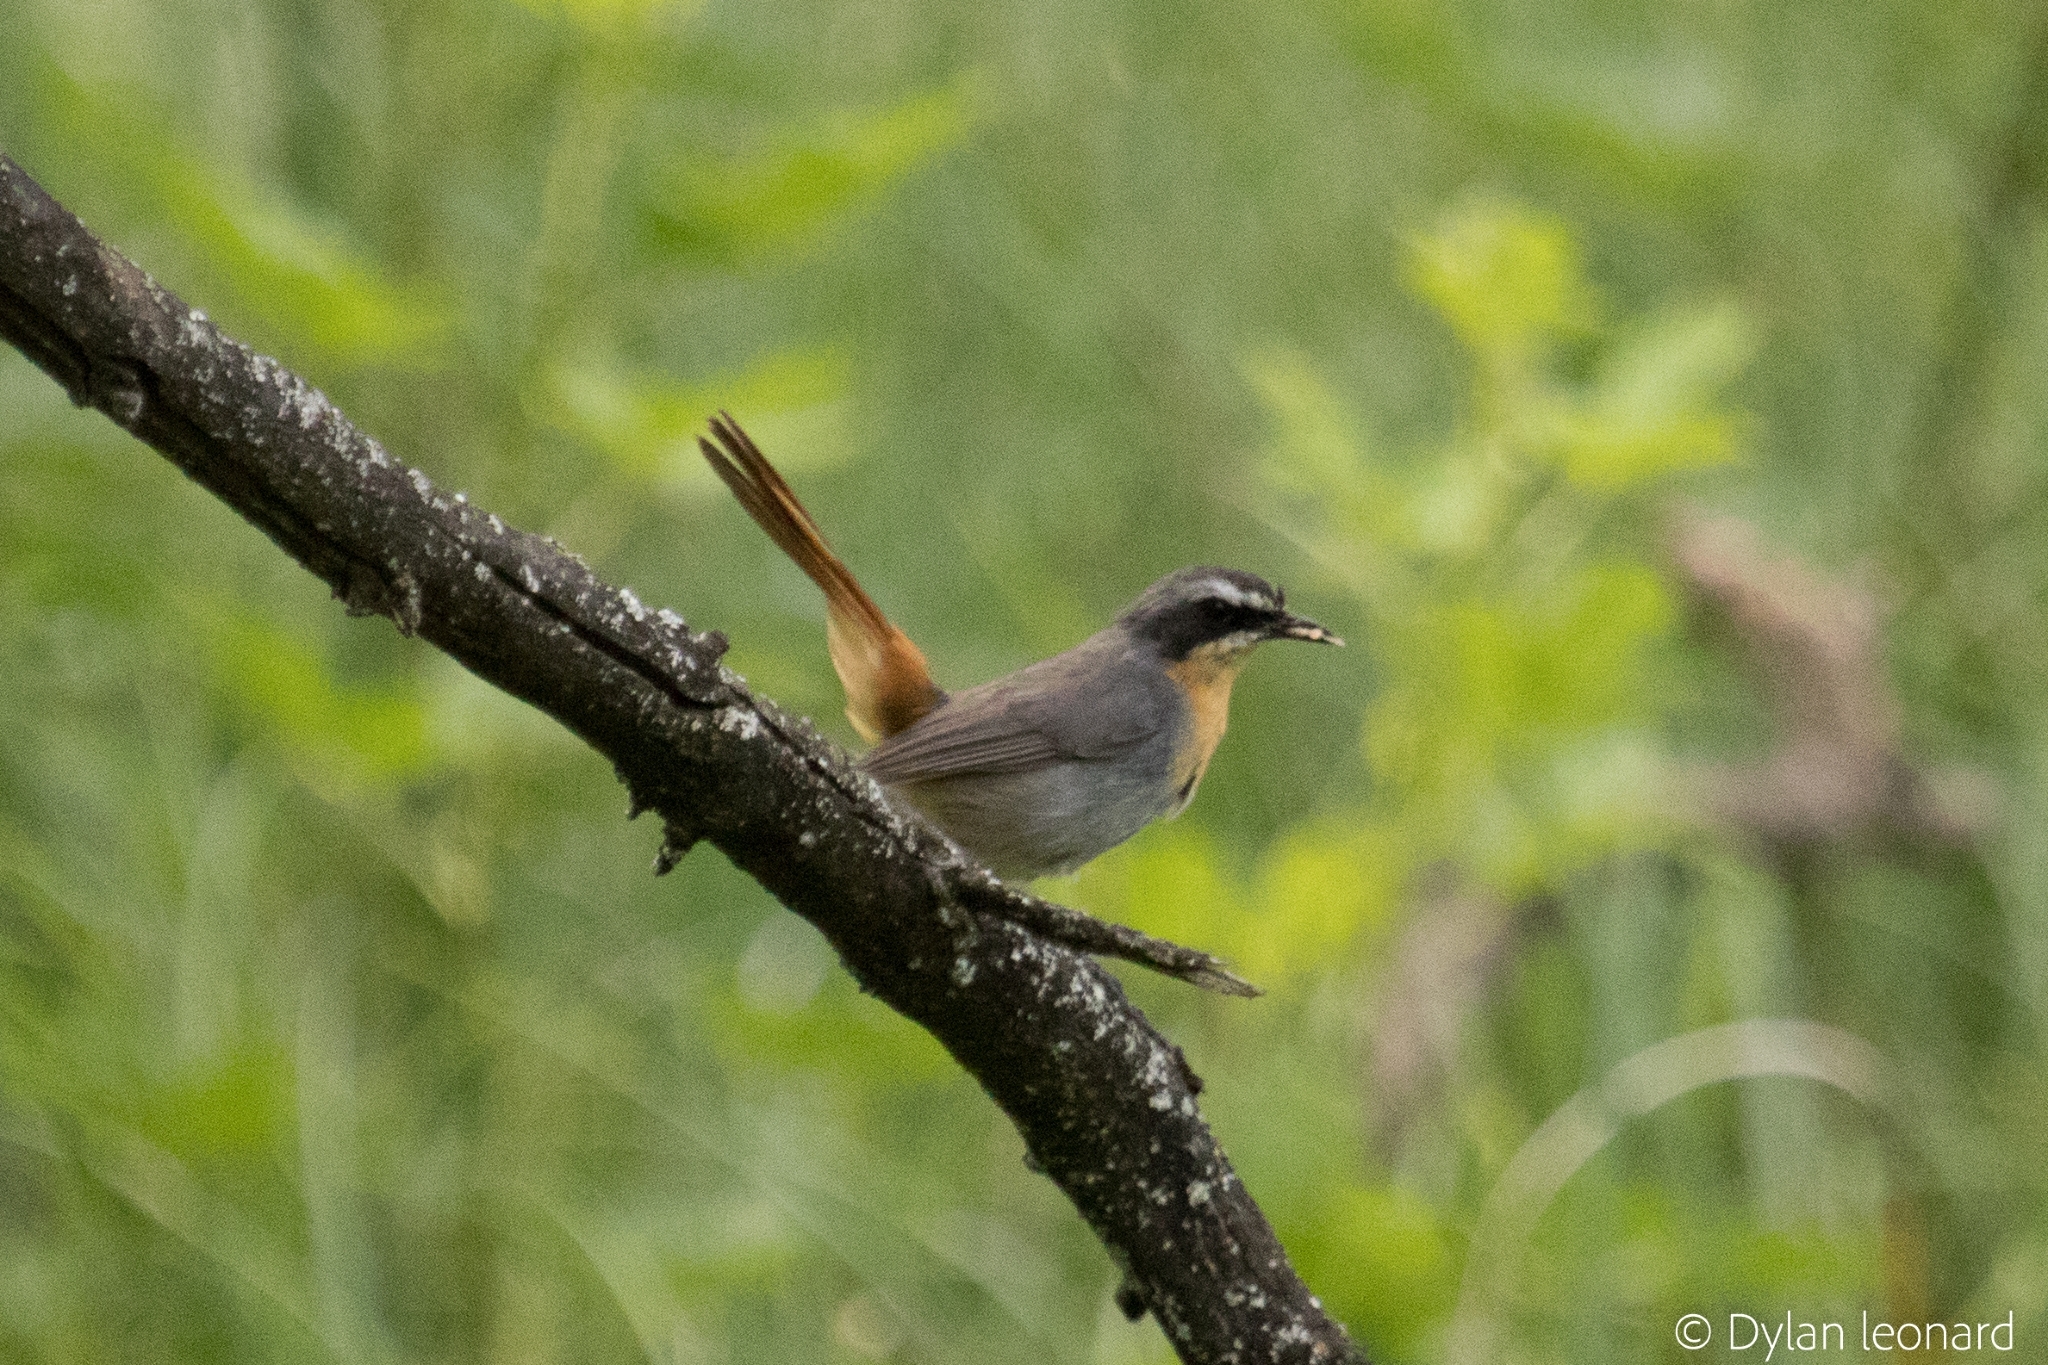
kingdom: Animalia
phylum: Chordata
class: Aves
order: Passeriformes
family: Muscicapidae
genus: Cossypha
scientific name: Cossypha caffra
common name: Cape robin-chat
